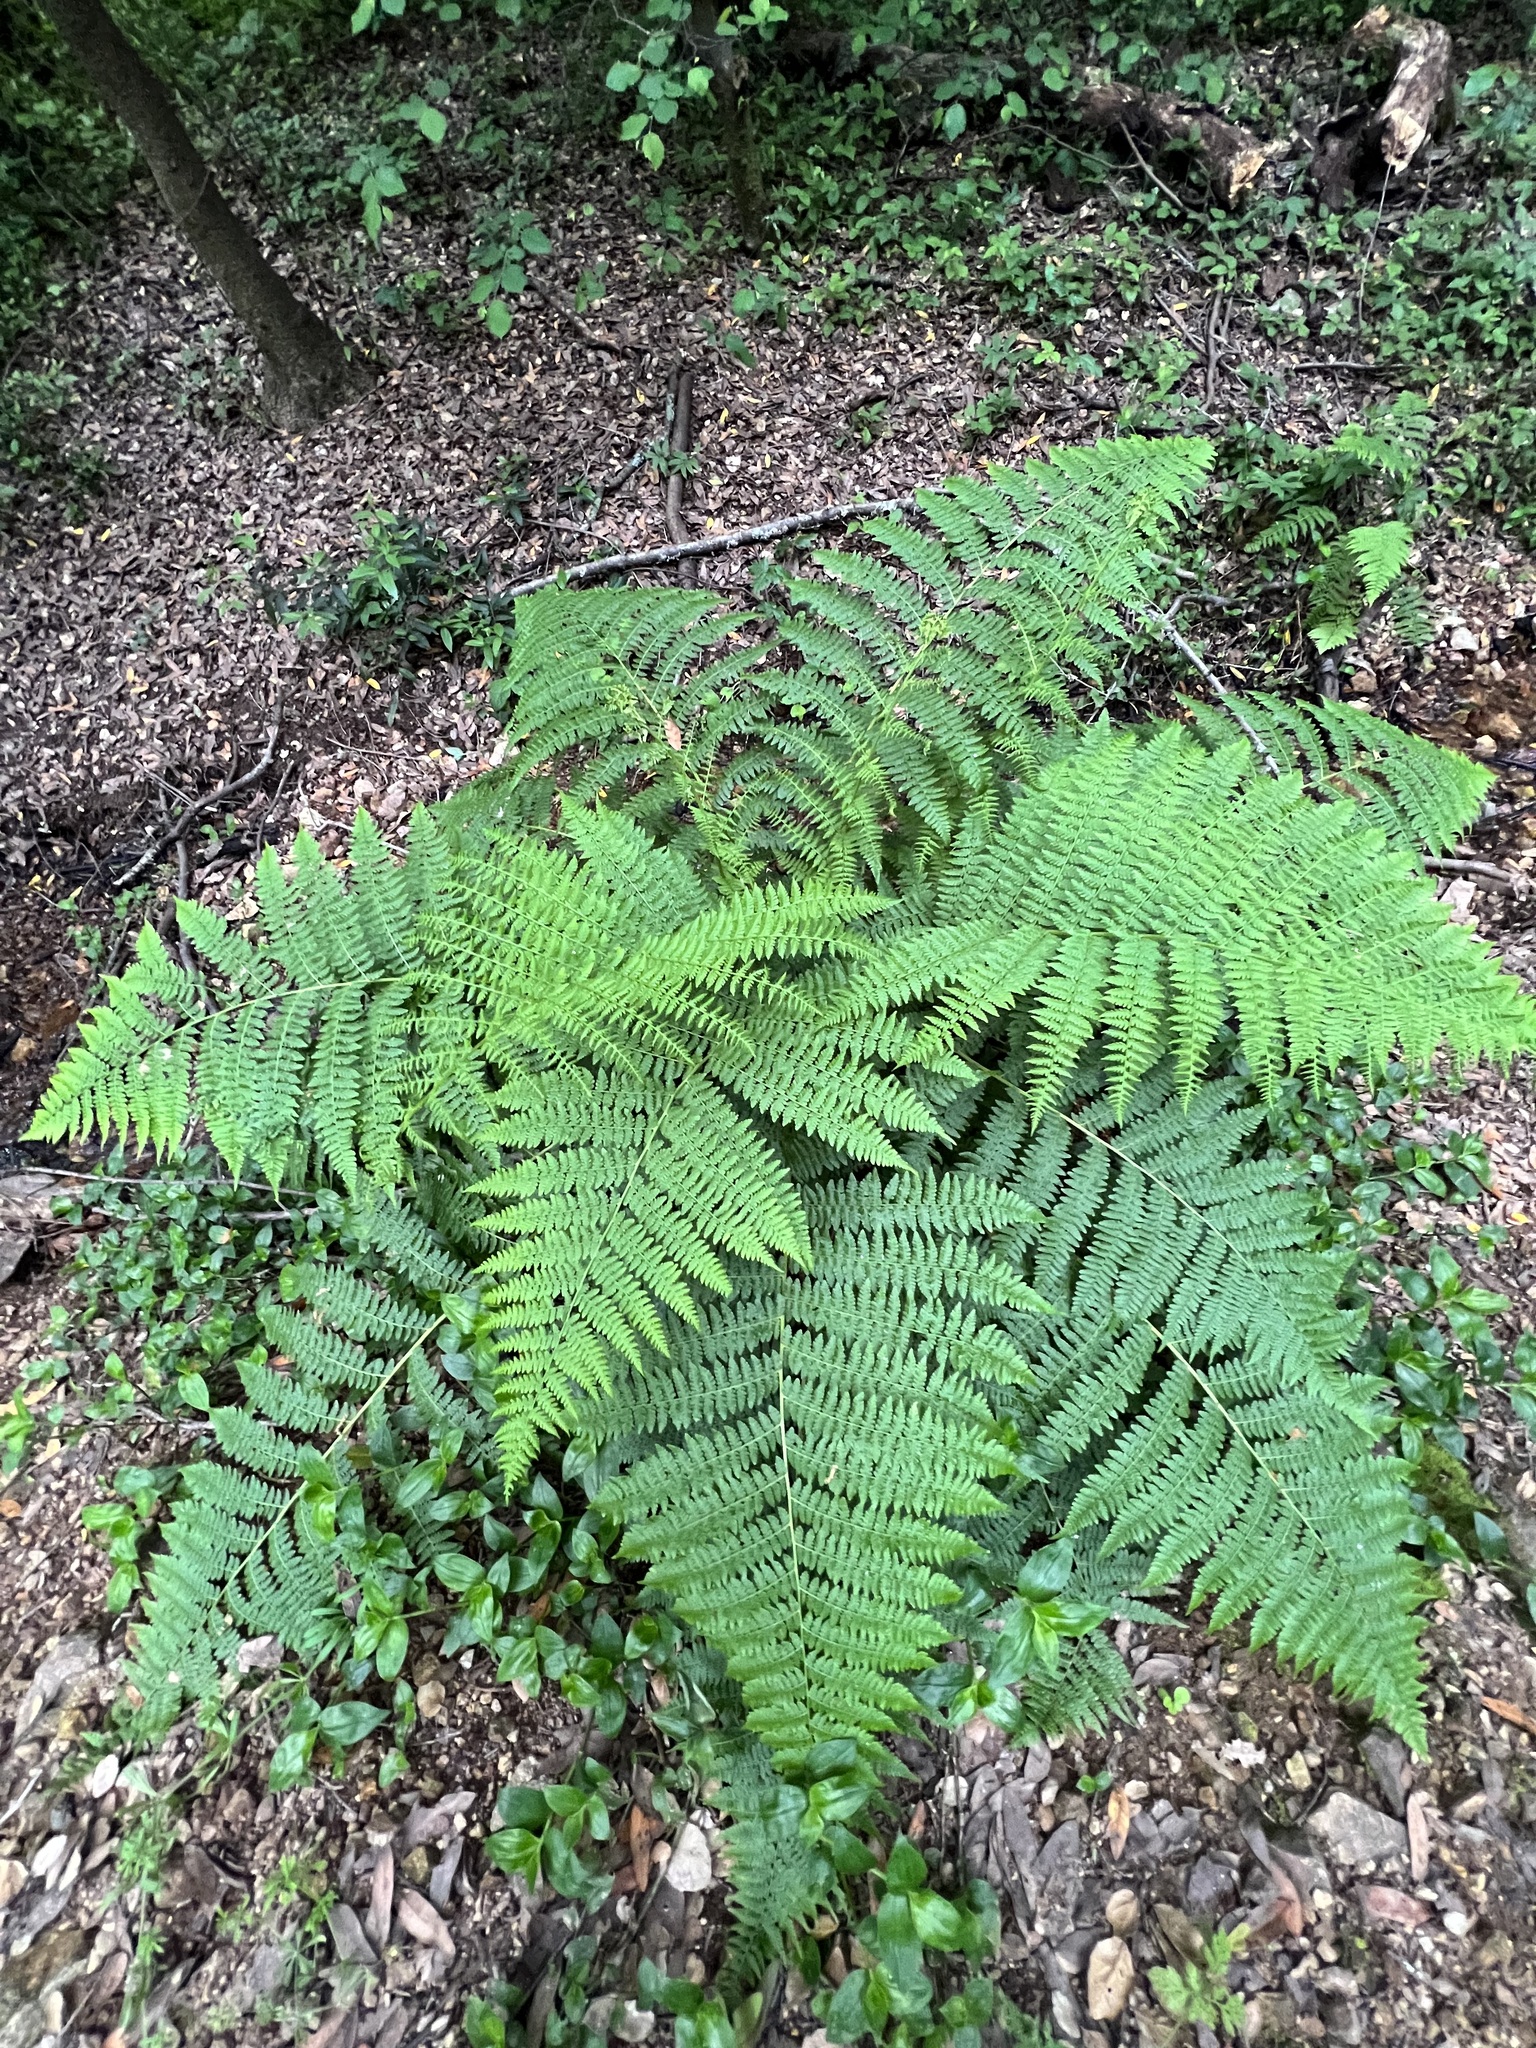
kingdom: Plantae
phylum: Tracheophyta
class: Polypodiopsida
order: Polypodiales
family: Athyriaceae
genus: Athyrium
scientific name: Athyrium filix-femina
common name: Lady fern
